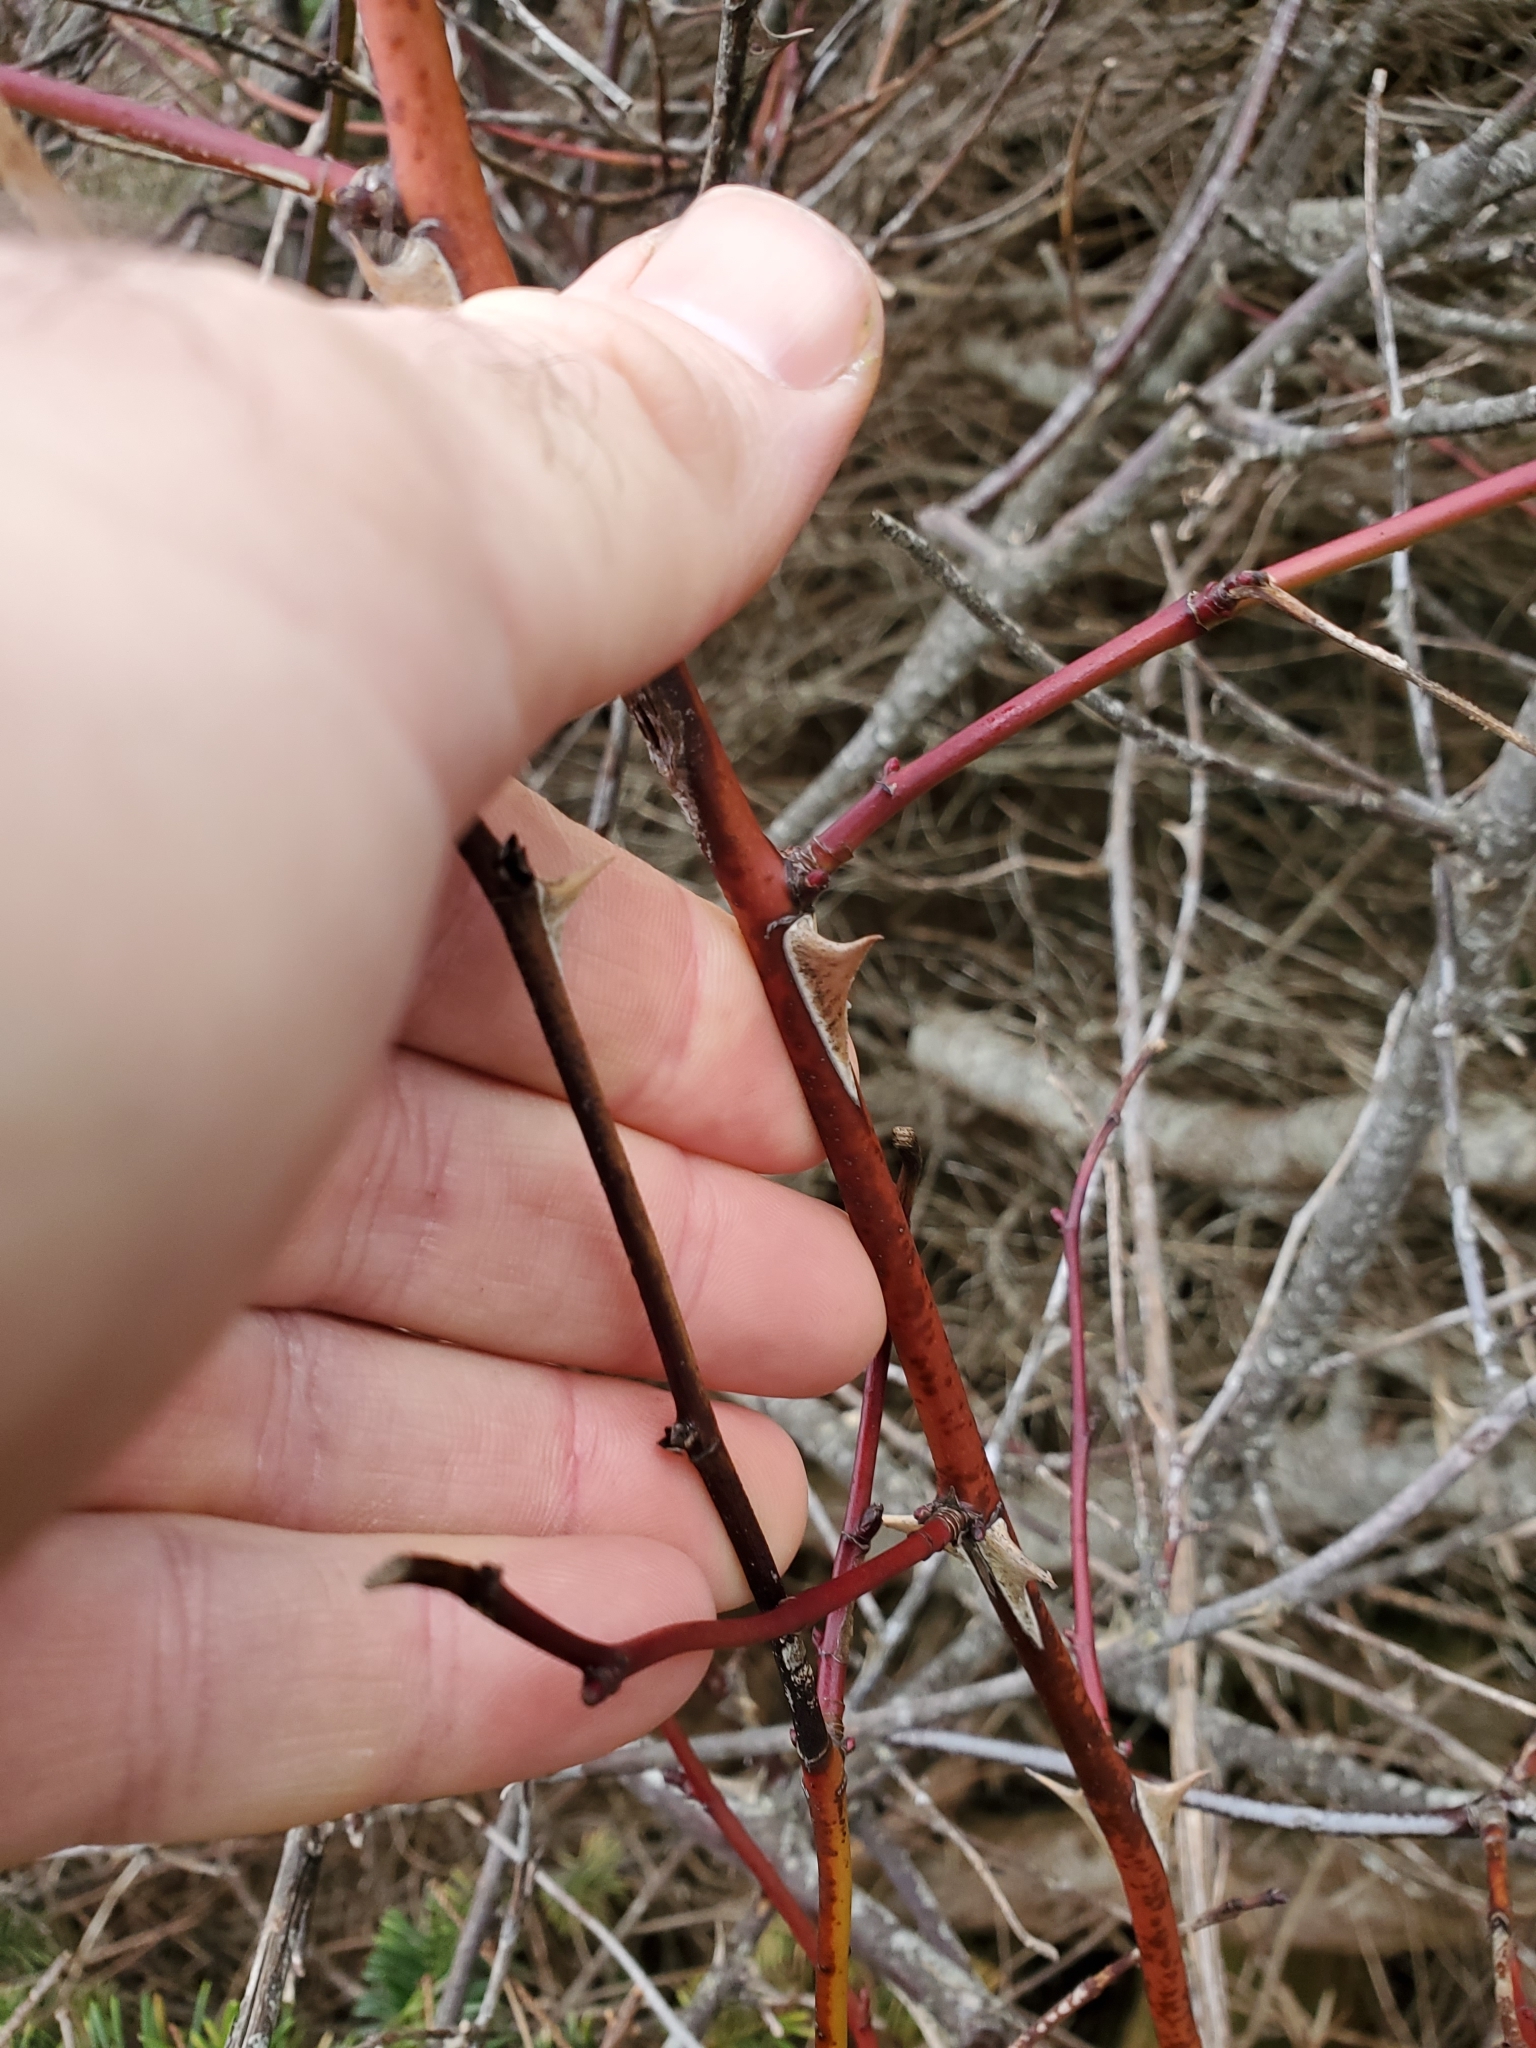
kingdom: Plantae
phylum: Tracheophyta
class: Magnoliopsida
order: Rosales
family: Rosaceae
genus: Rosa
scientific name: Rosa nutkana
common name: Nootka rose
